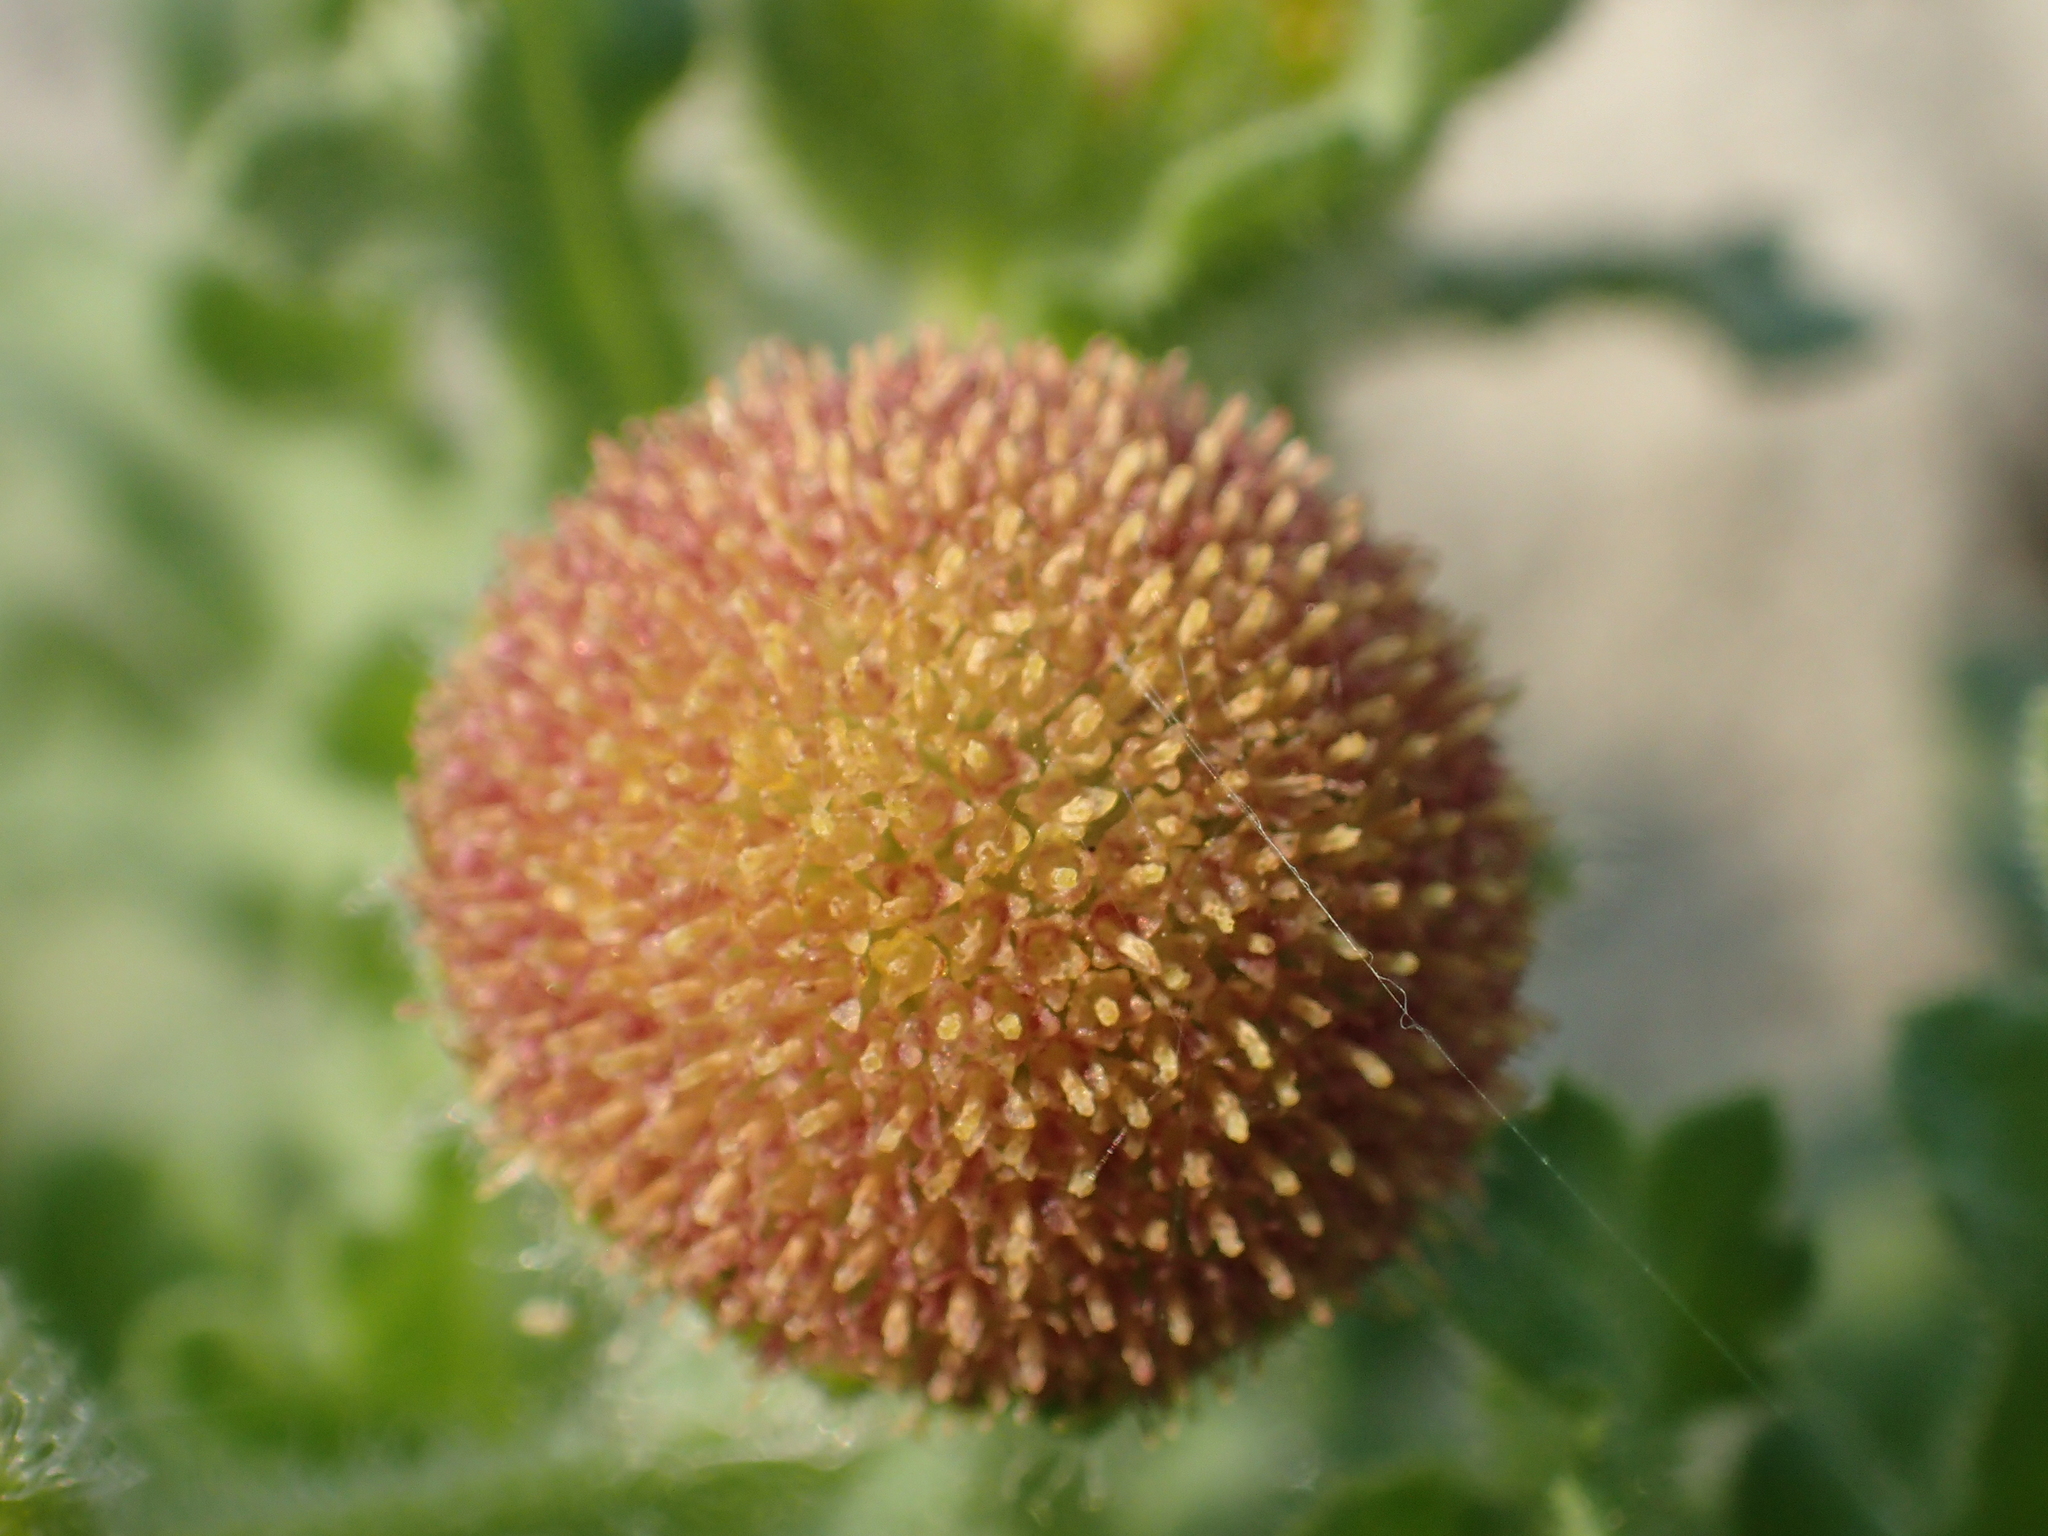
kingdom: Plantae
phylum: Tracheophyta
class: Magnoliopsida
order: Asterales
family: Asteraceae
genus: Grangea
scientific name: Grangea maderaspatana
